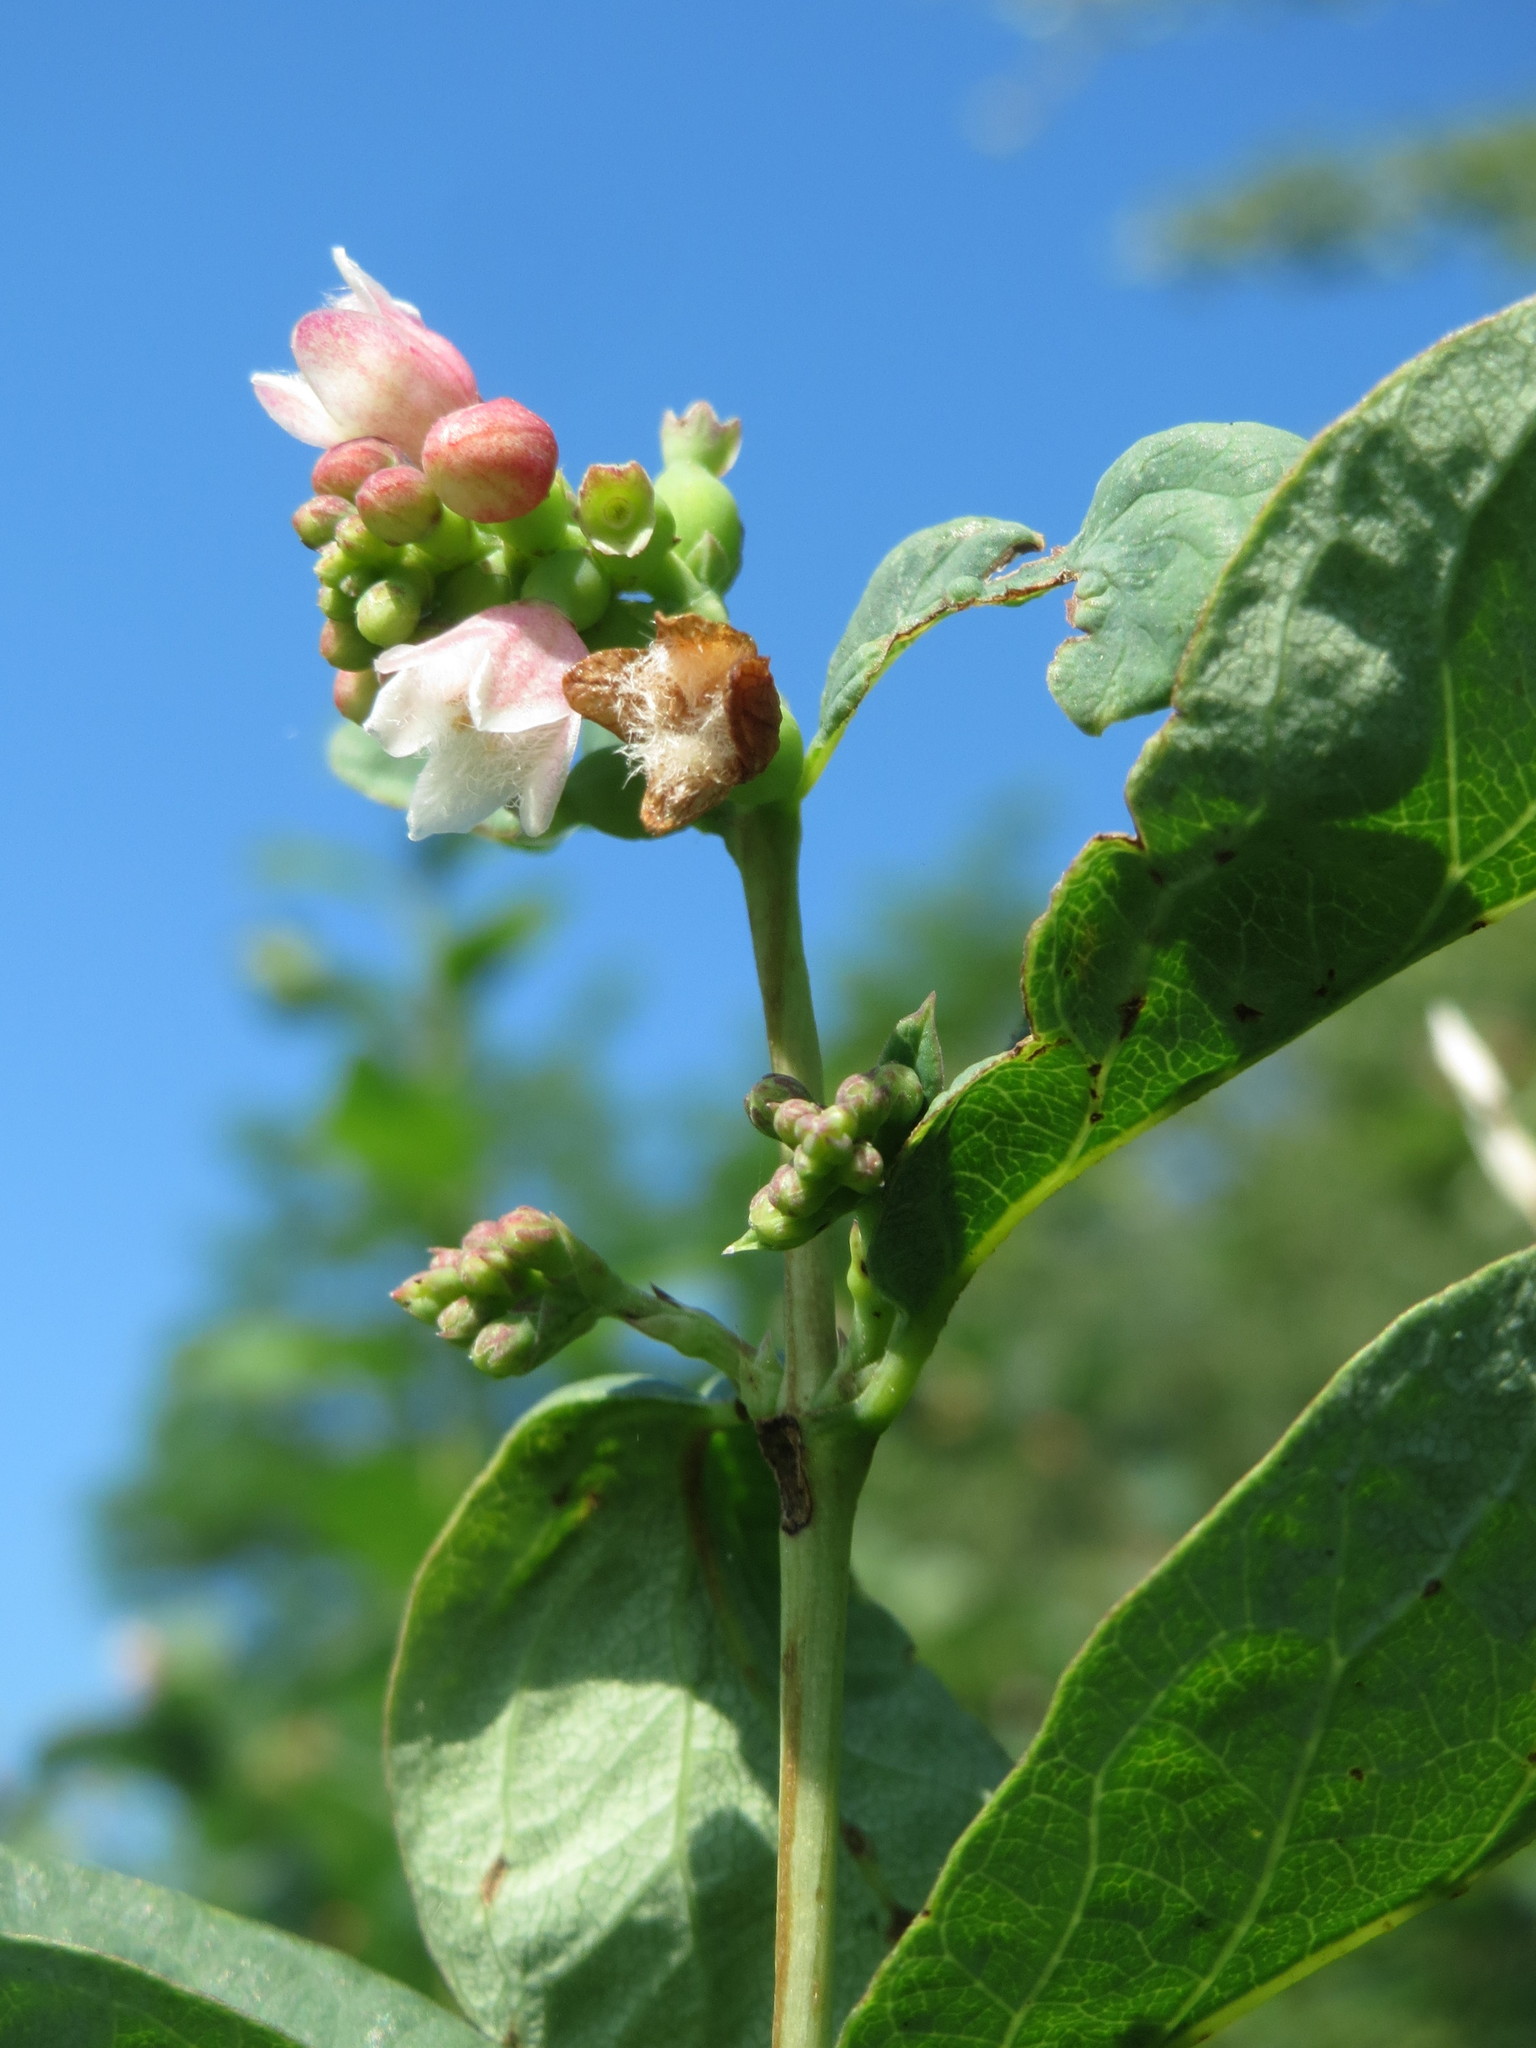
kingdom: Plantae
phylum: Tracheophyta
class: Magnoliopsida
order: Dipsacales
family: Caprifoliaceae
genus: Symphoricarpos
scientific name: Symphoricarpos albus
